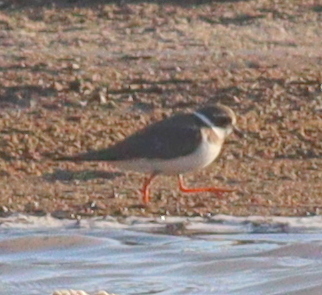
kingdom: Animalia
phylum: Chordata
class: Aves
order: Charadriiformes
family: Charadriidae
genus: Charadrius
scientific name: Charadrius hiaticula
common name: Common ringed plover
